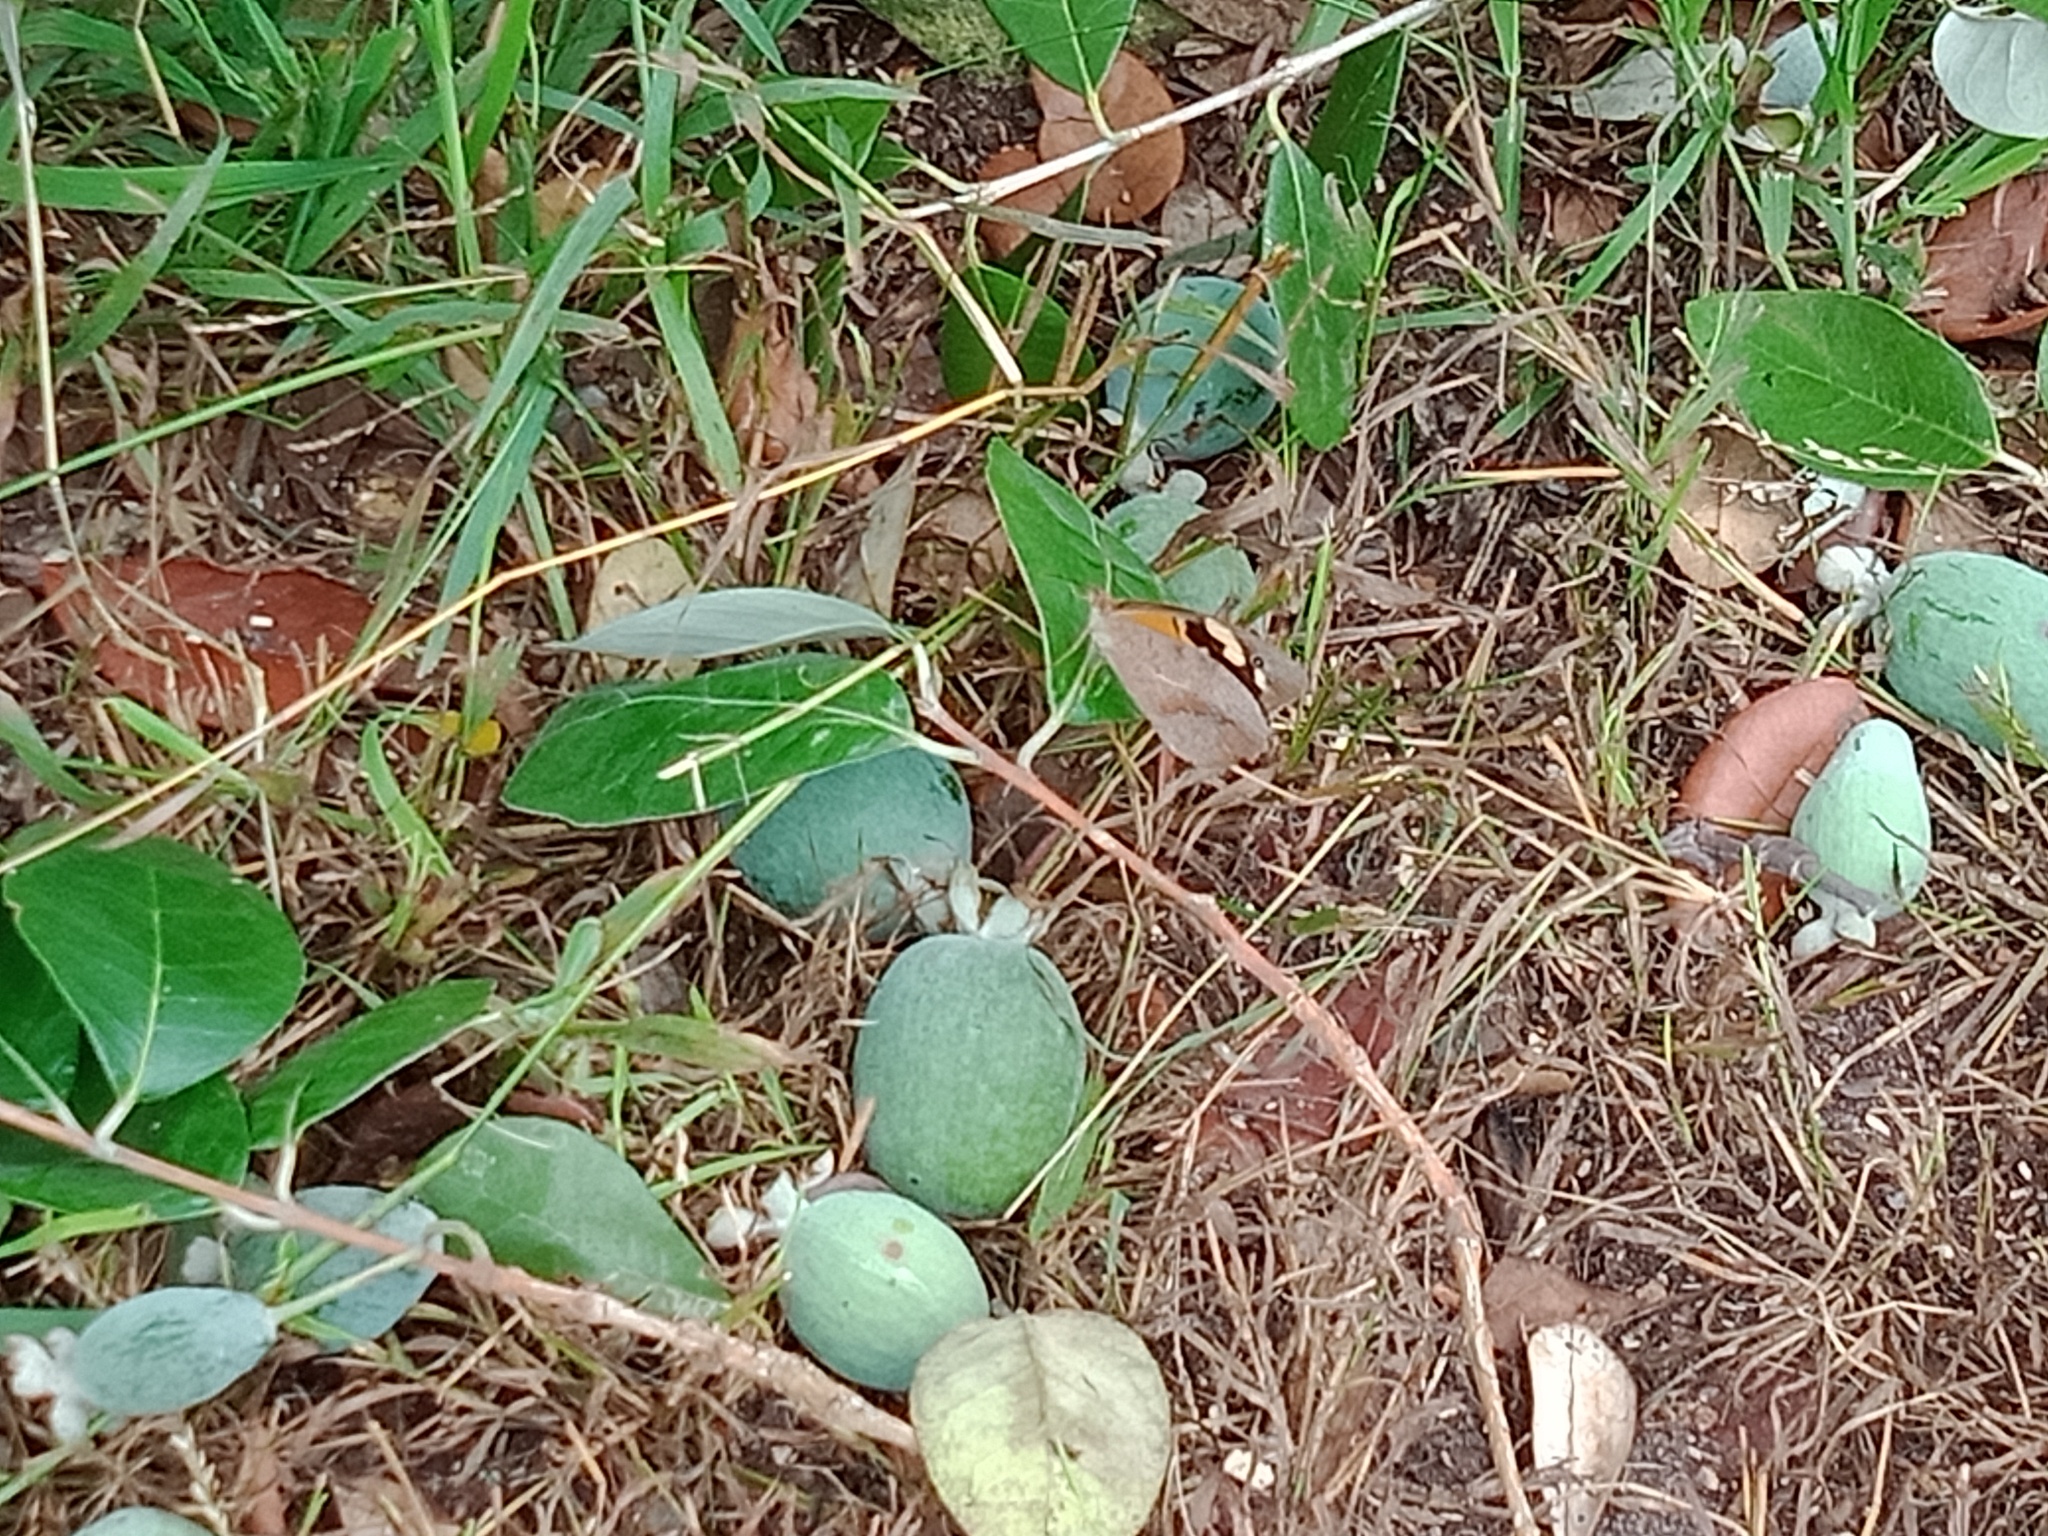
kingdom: Animalia
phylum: Arthropoda
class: Insecta
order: Lepidoptera
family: Nymphalidae
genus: Heteronympha
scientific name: Heteronympha merope
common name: Common brown
